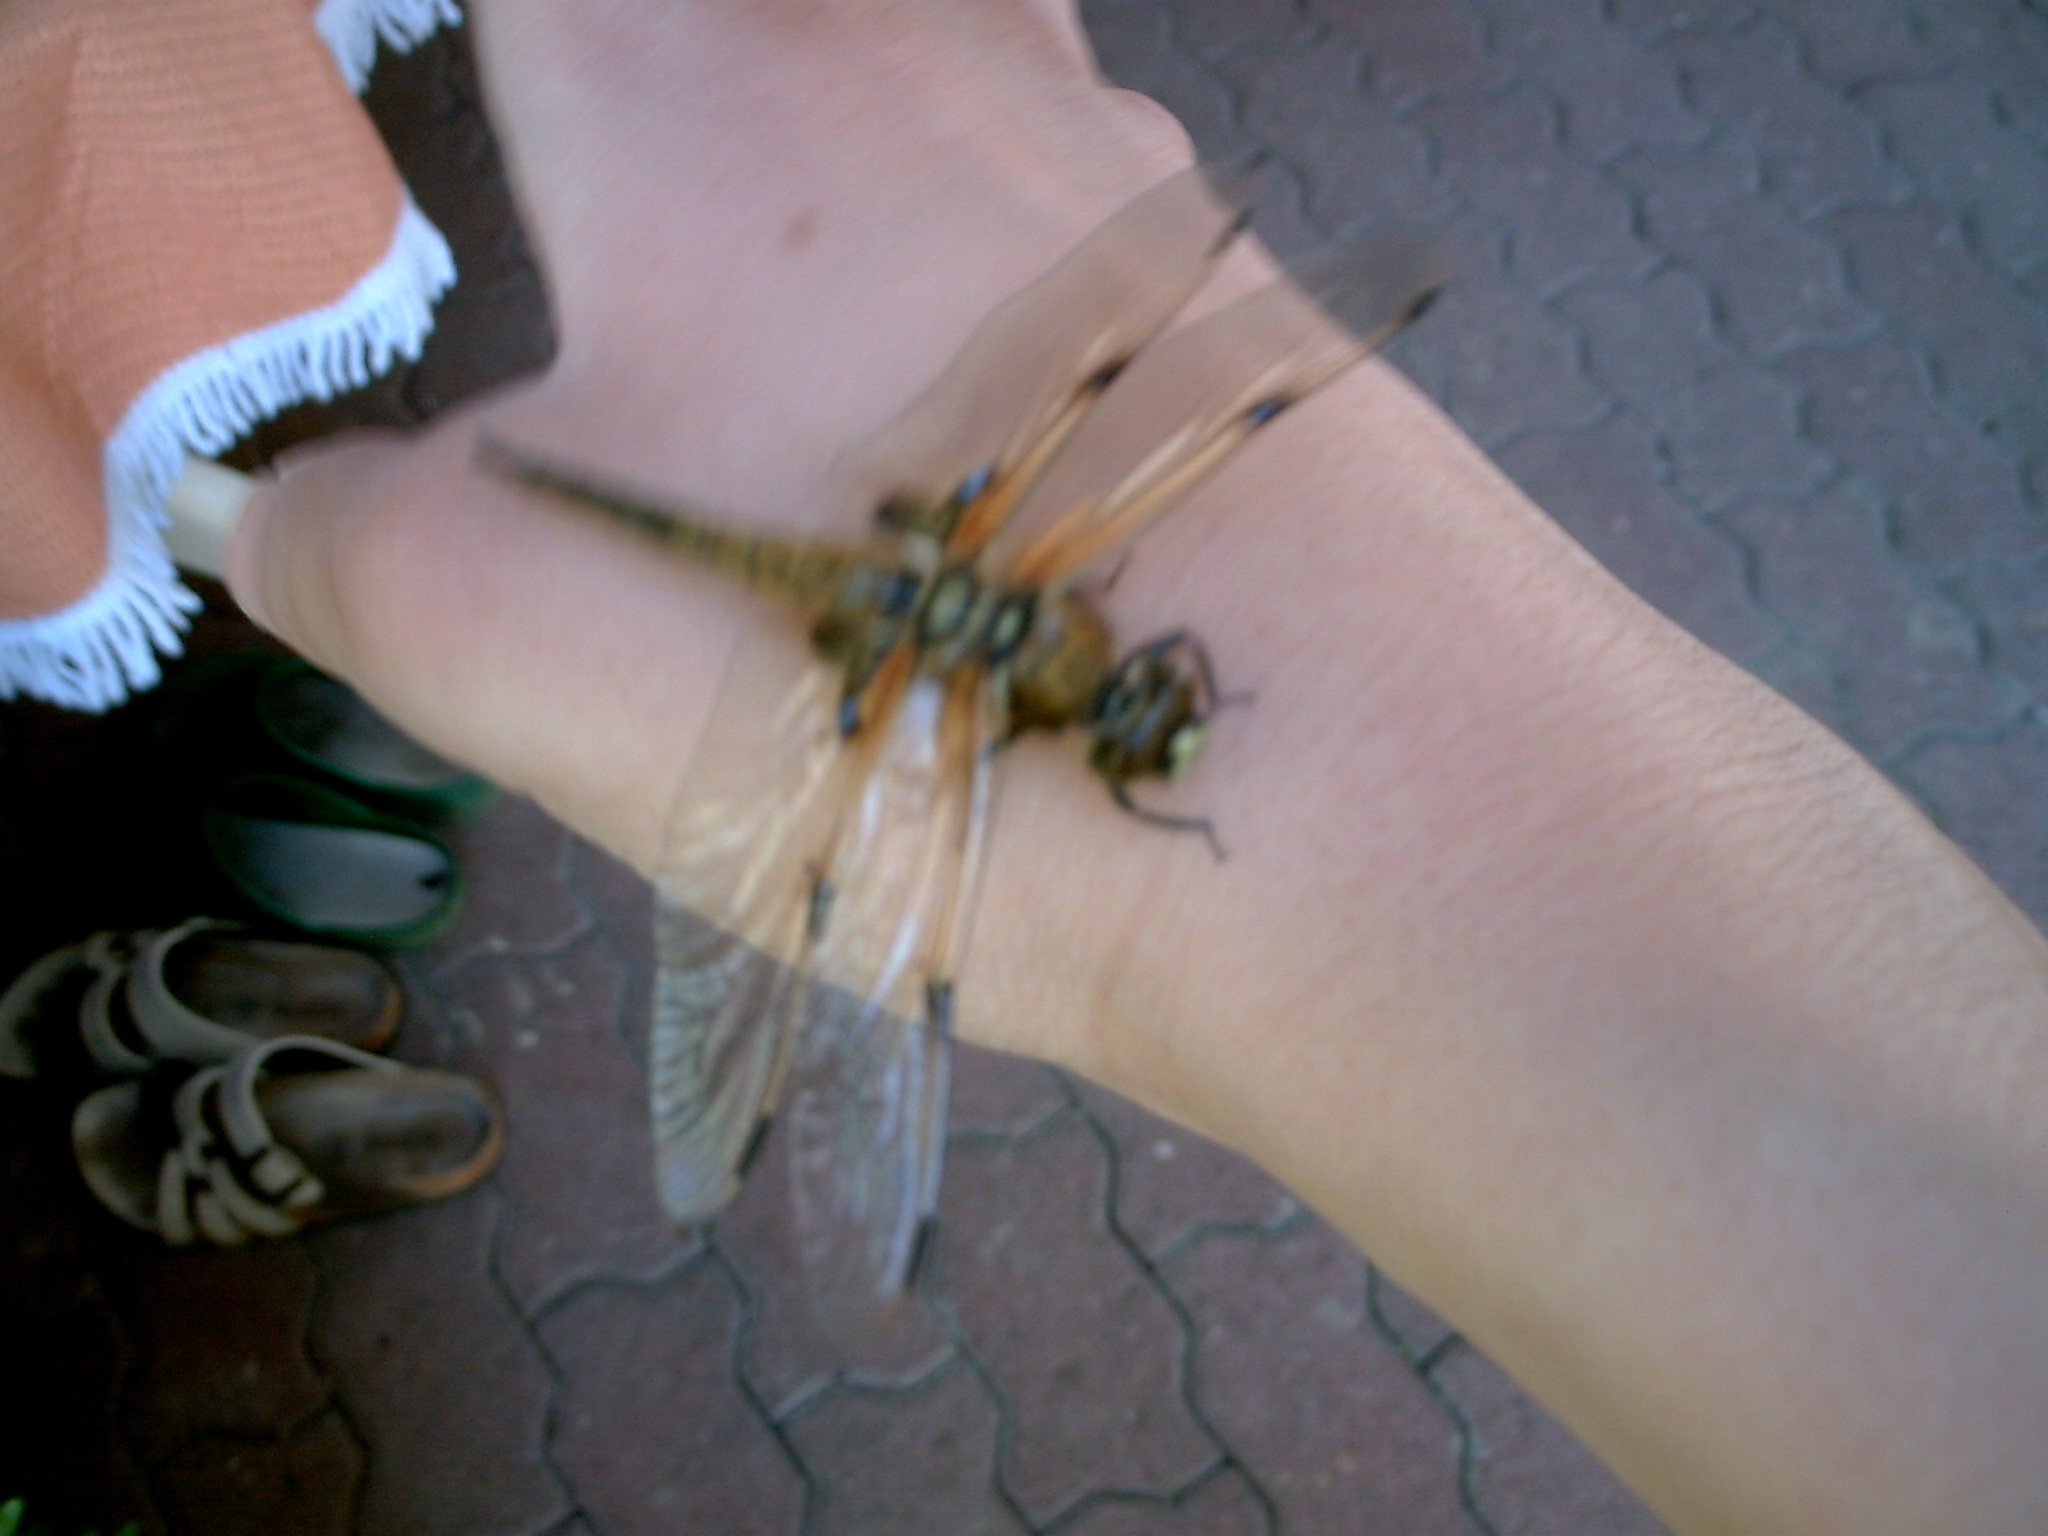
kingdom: Animalia
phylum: Arthropoda
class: Insecta
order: Odonata
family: Libellulidae
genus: Libellula
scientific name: Libellula quadrimaculata
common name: Four-spotted chaser
